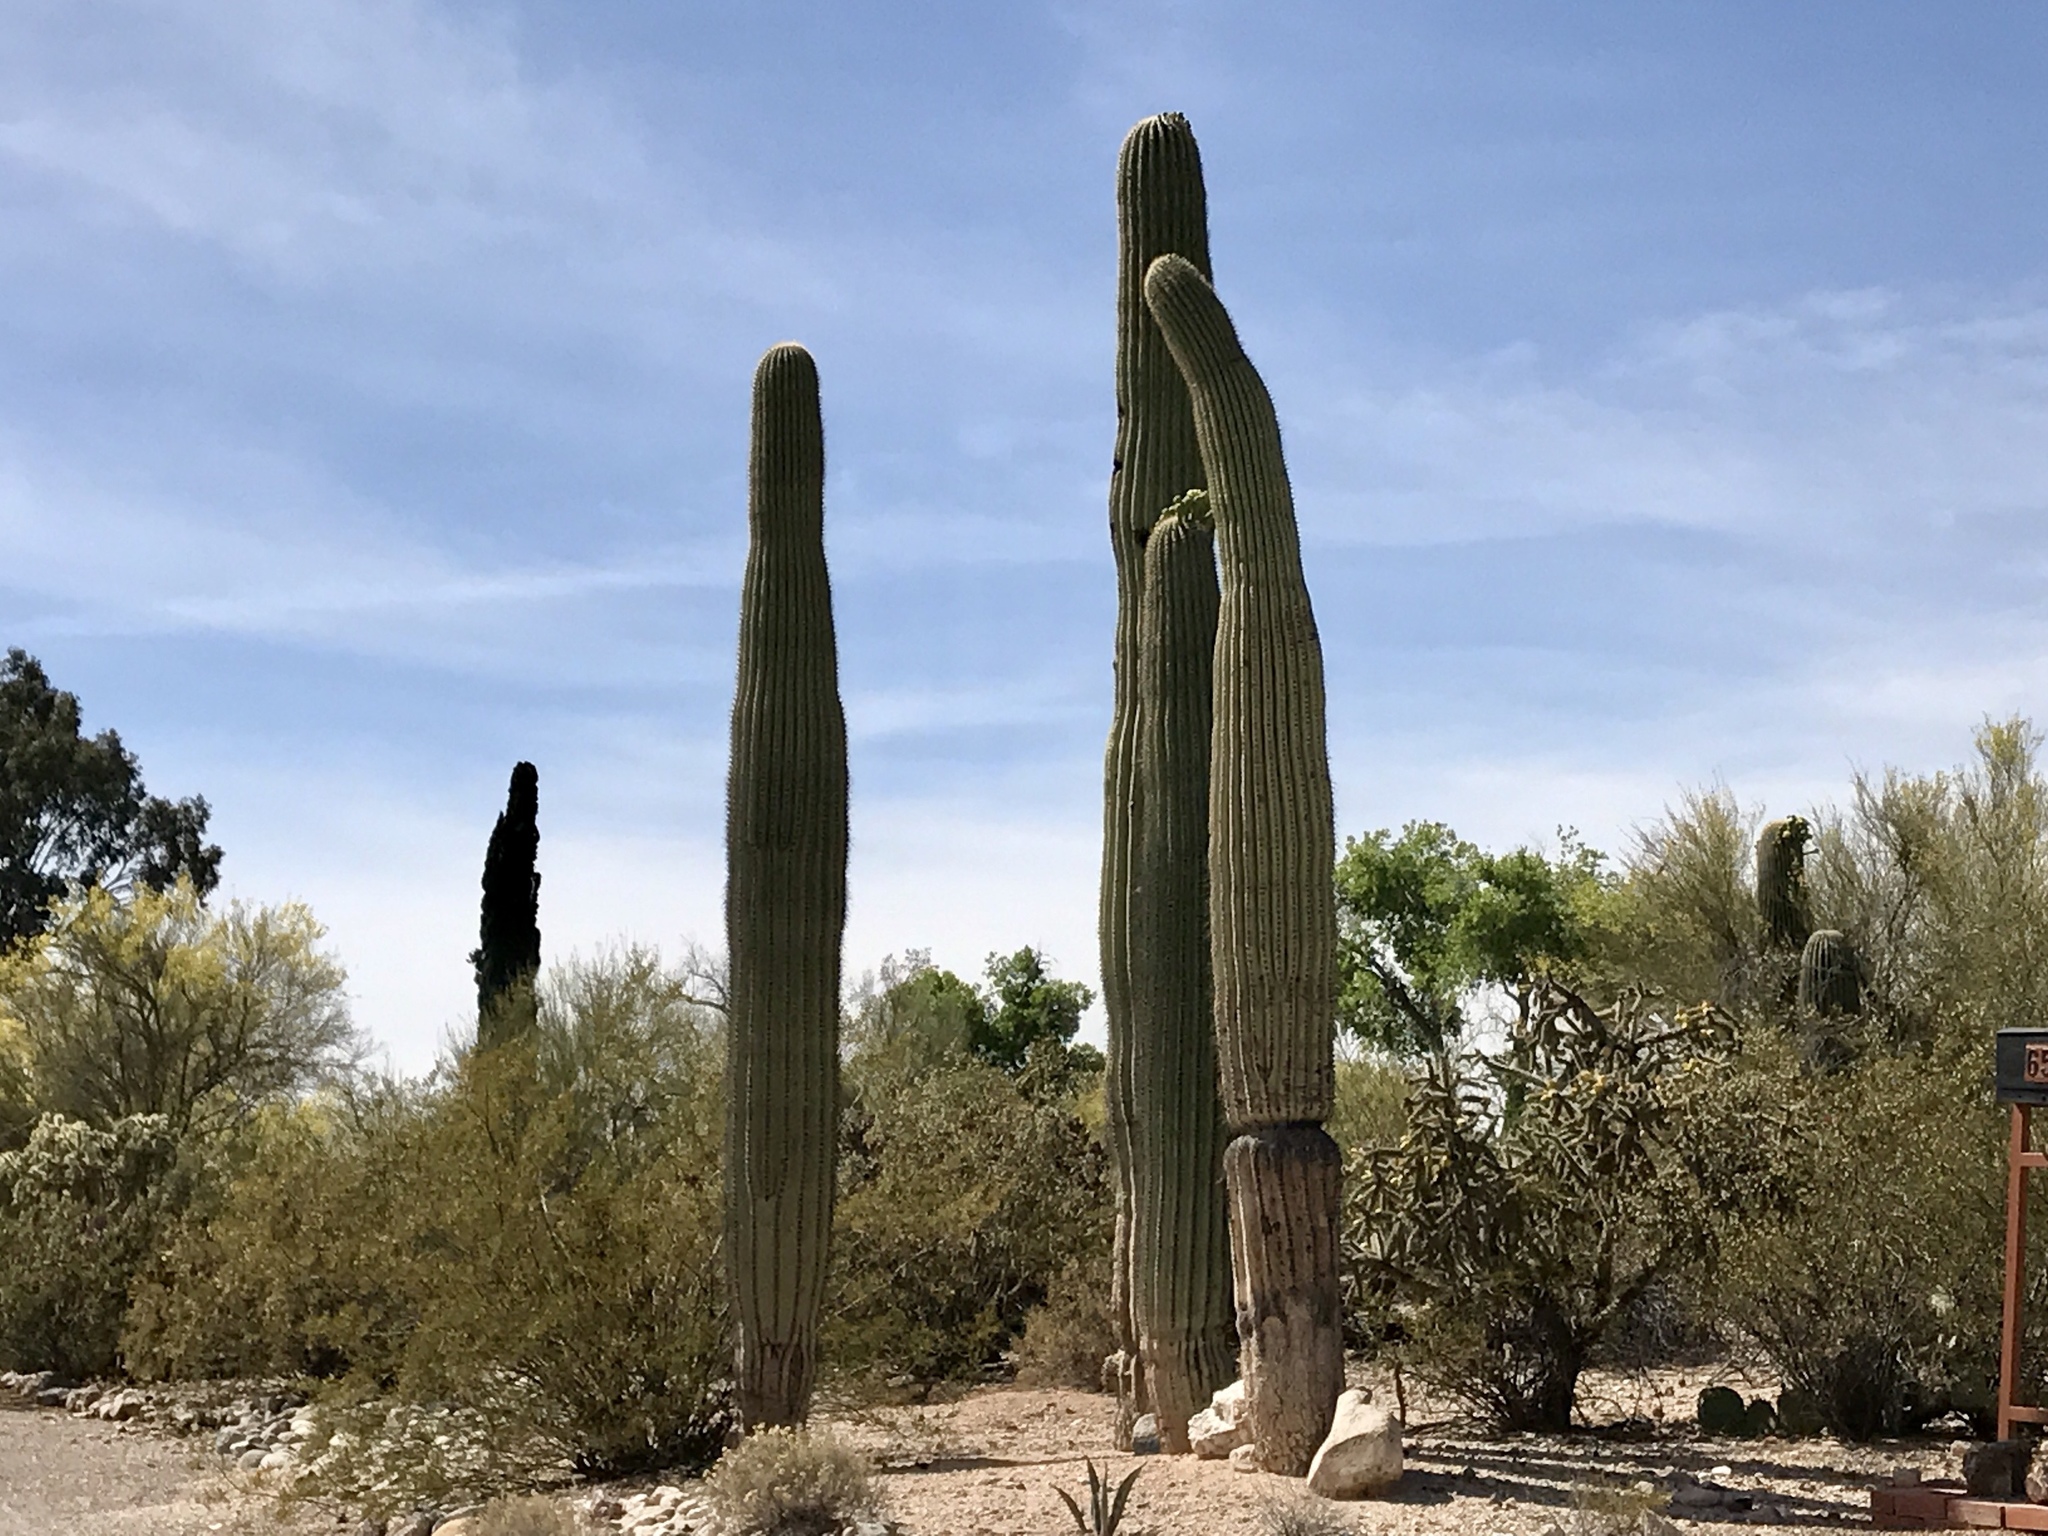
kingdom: Plantae
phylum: Tracheophyta
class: Magnoliopsida
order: Caryophyllales
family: Cactaceae
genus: Carnegiea
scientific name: Carnegiea gigantea
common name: Saguaro
